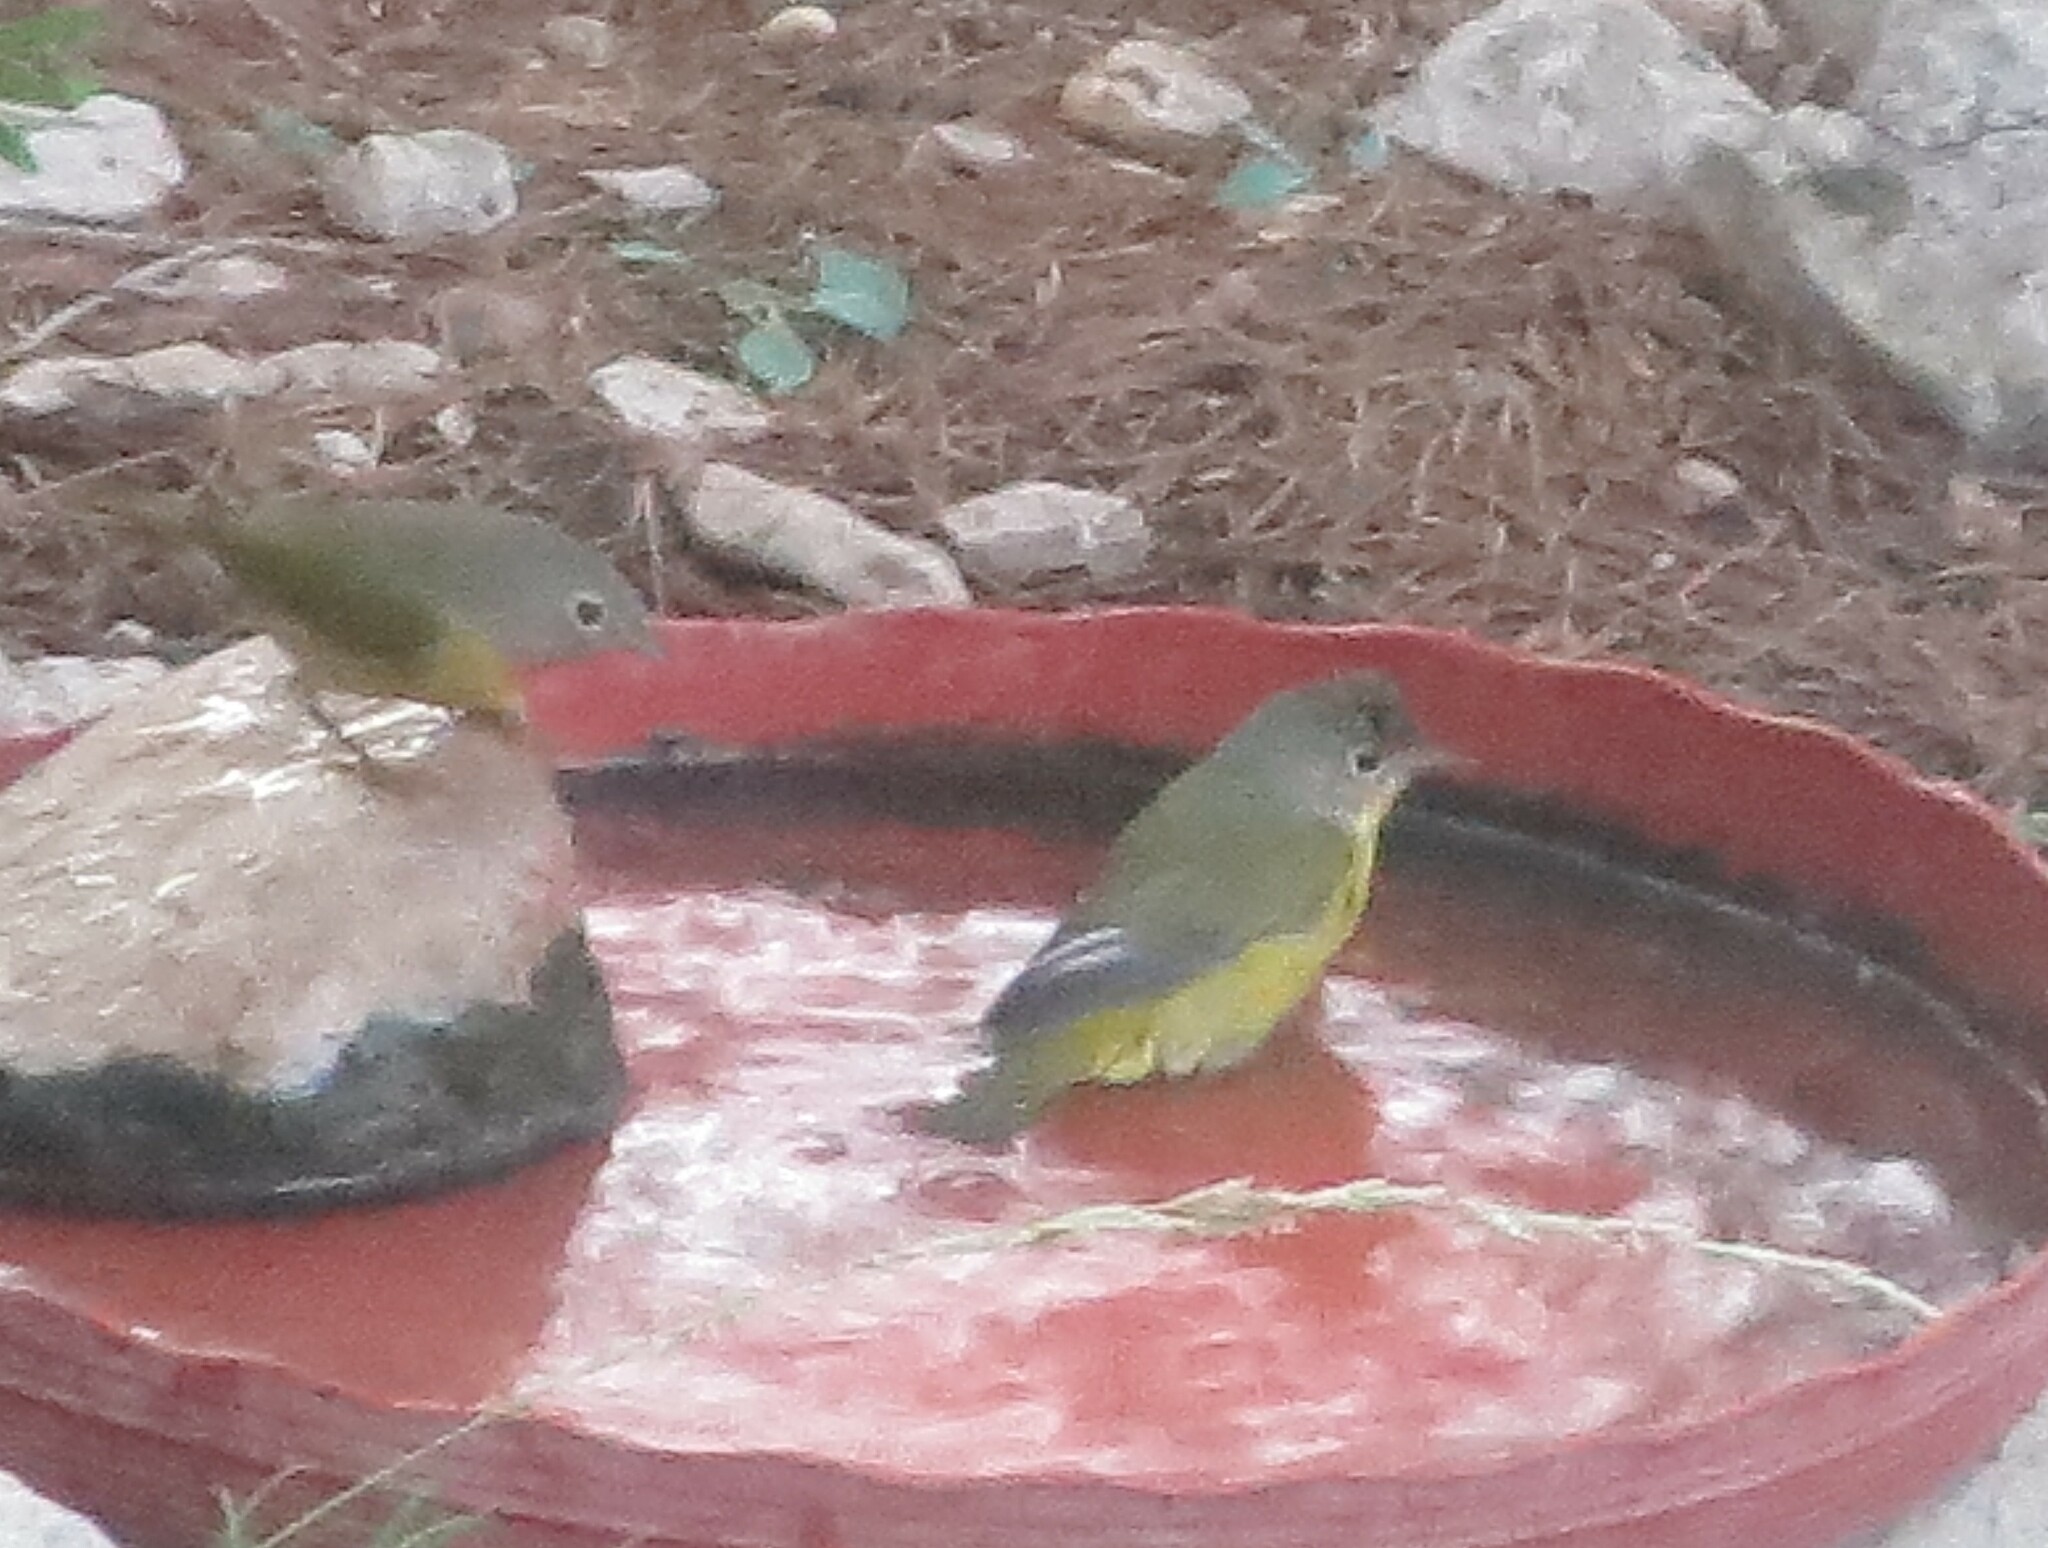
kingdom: Animalia
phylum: Chordata
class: Aves
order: Passeriformes
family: Parulidae
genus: Leiothlypis
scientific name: Leiothlypis ruficapilla
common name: Nashville warbler
